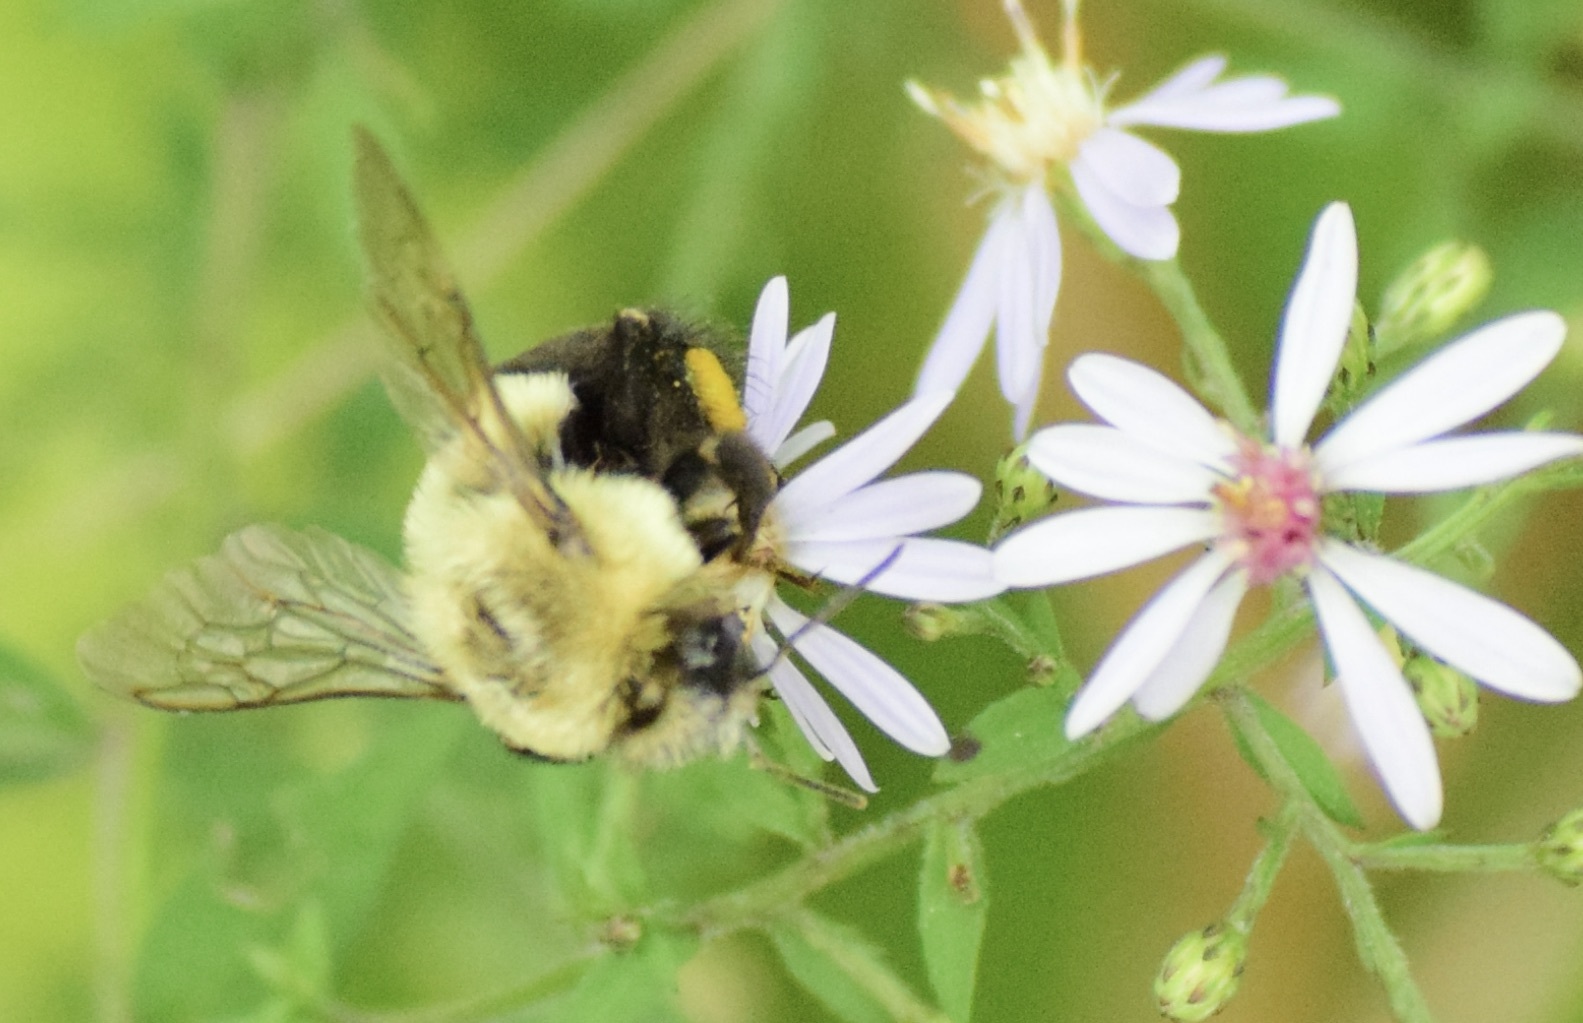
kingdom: Animalia
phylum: Arthropoda
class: Insecta
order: Hymenoptera
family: Apidae
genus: Bombus
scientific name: Bombus impatiens
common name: Common eastern bumble bee
